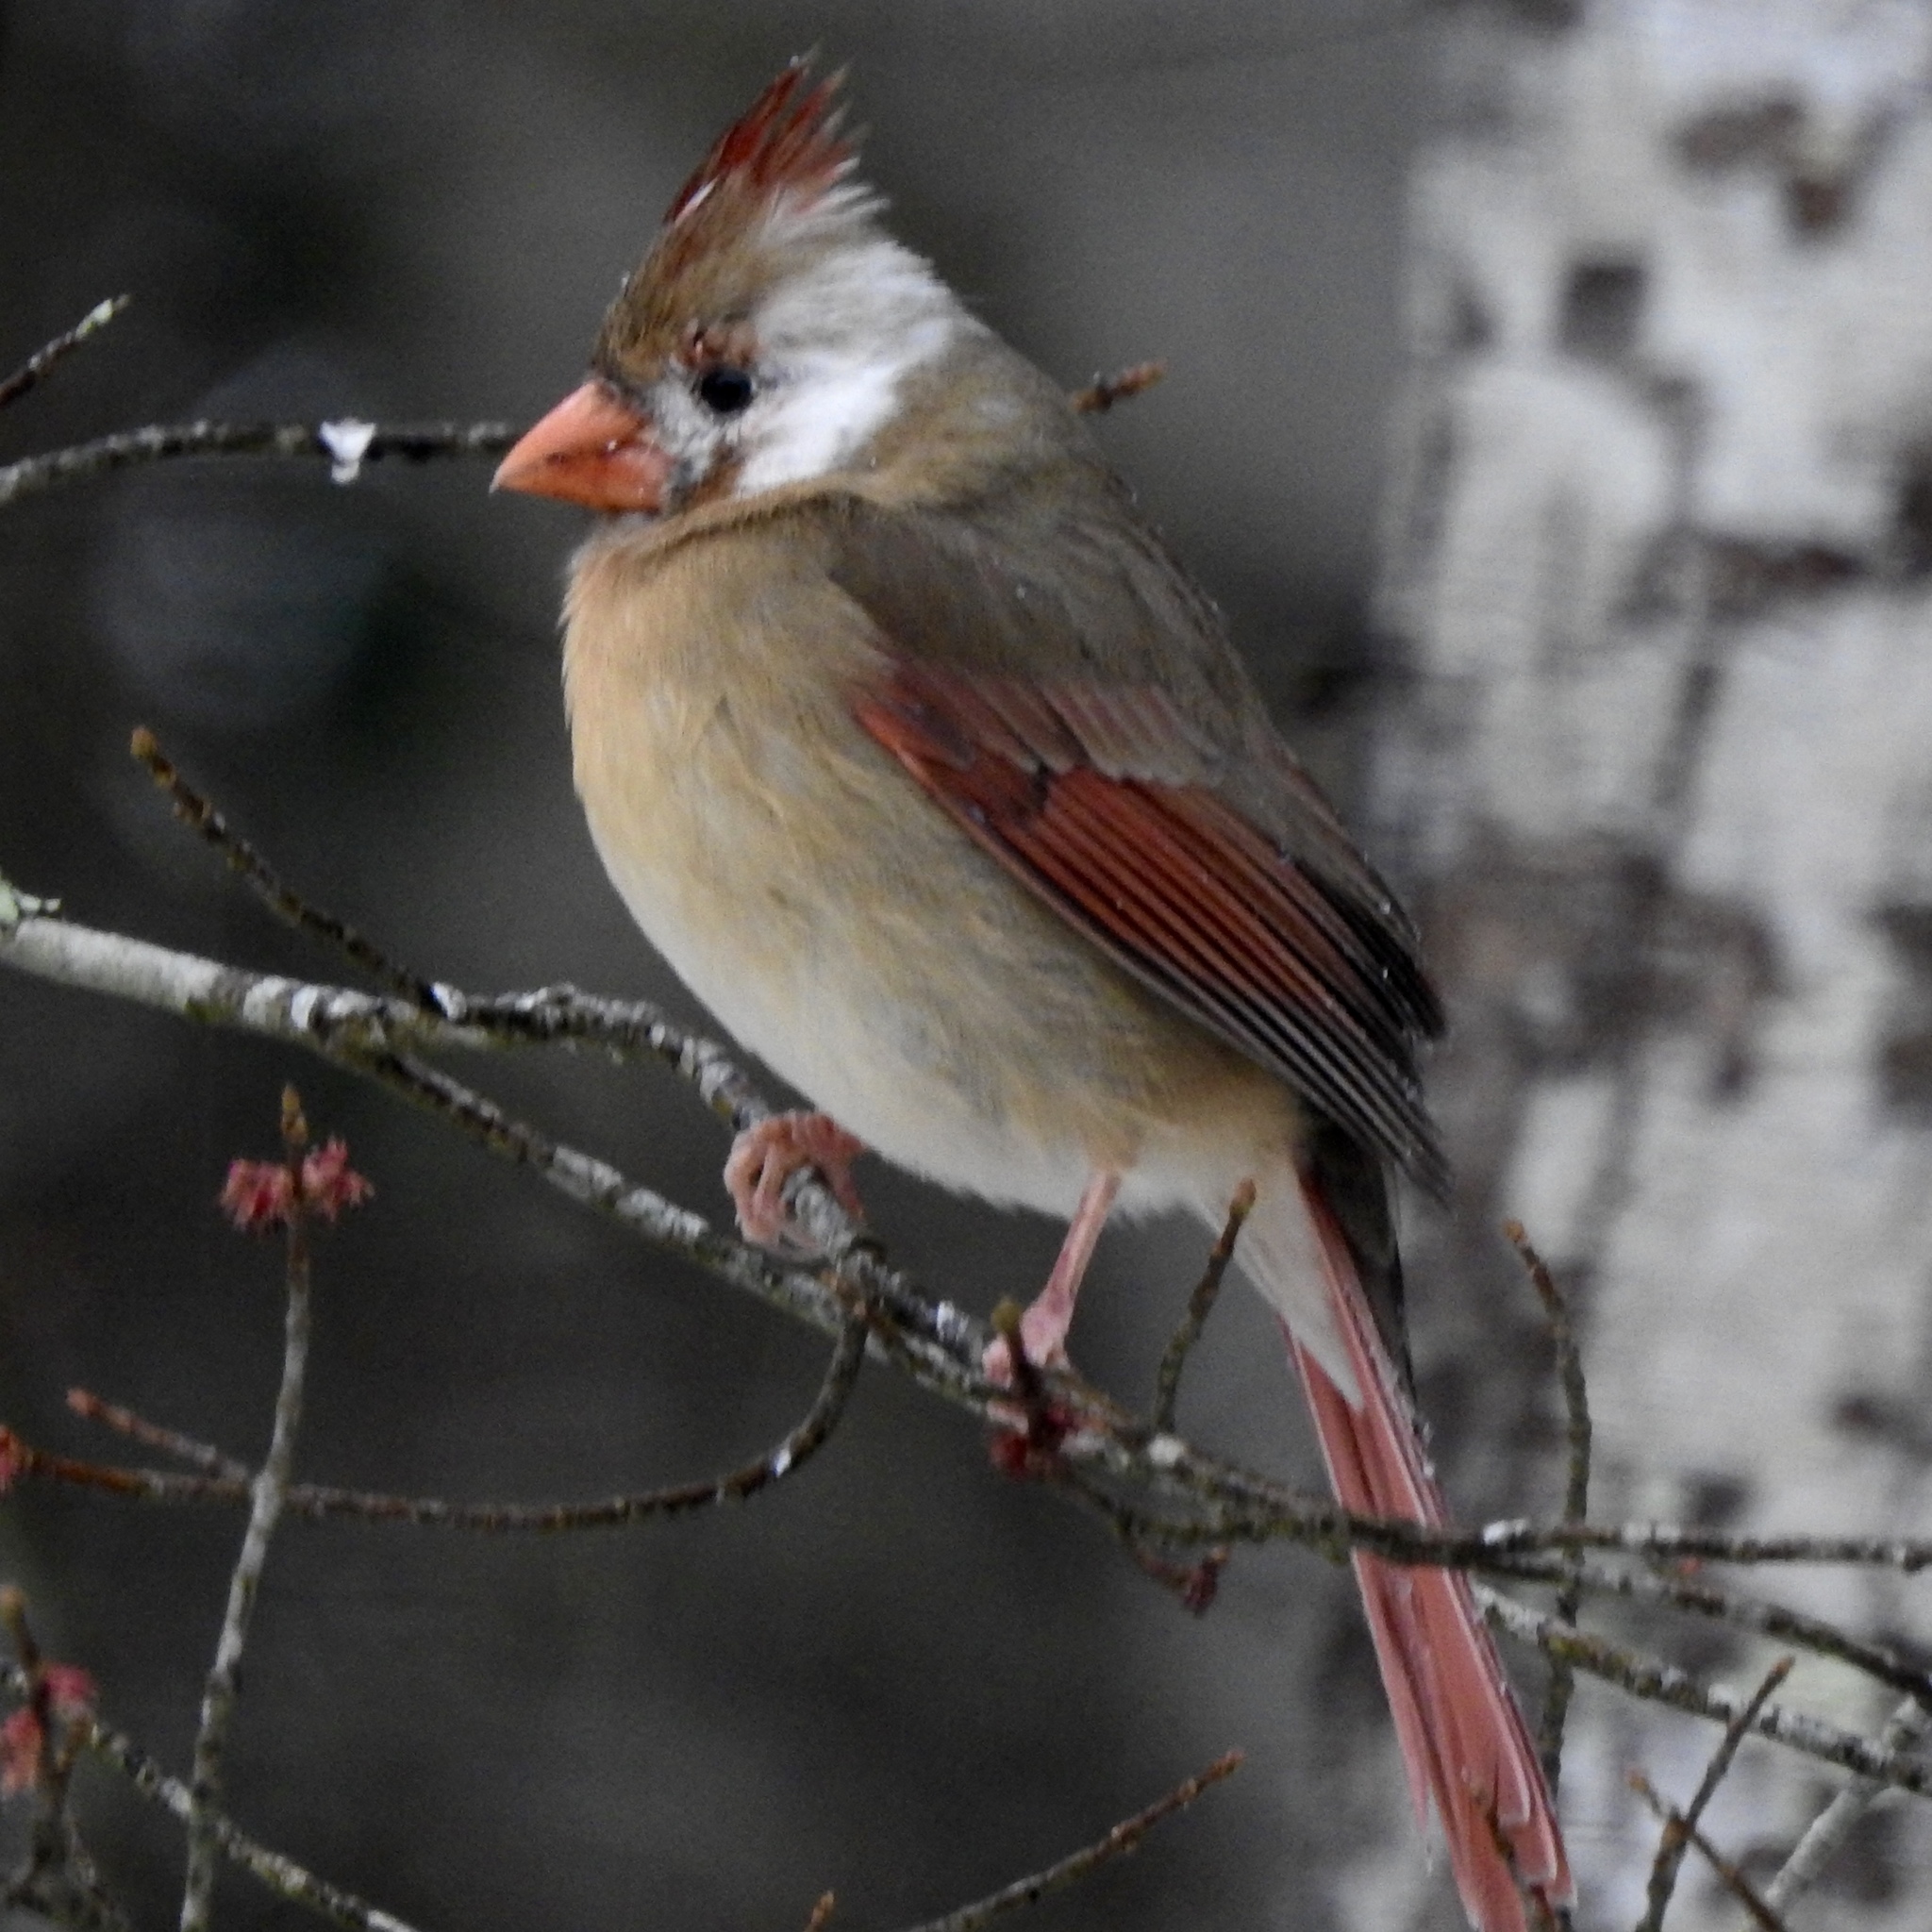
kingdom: Animalia
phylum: Chordata
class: Aves
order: Passeriformes
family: Cardinalidae
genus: Cardinalis
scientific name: Cardinalis cardinalis
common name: Northern cardinal
